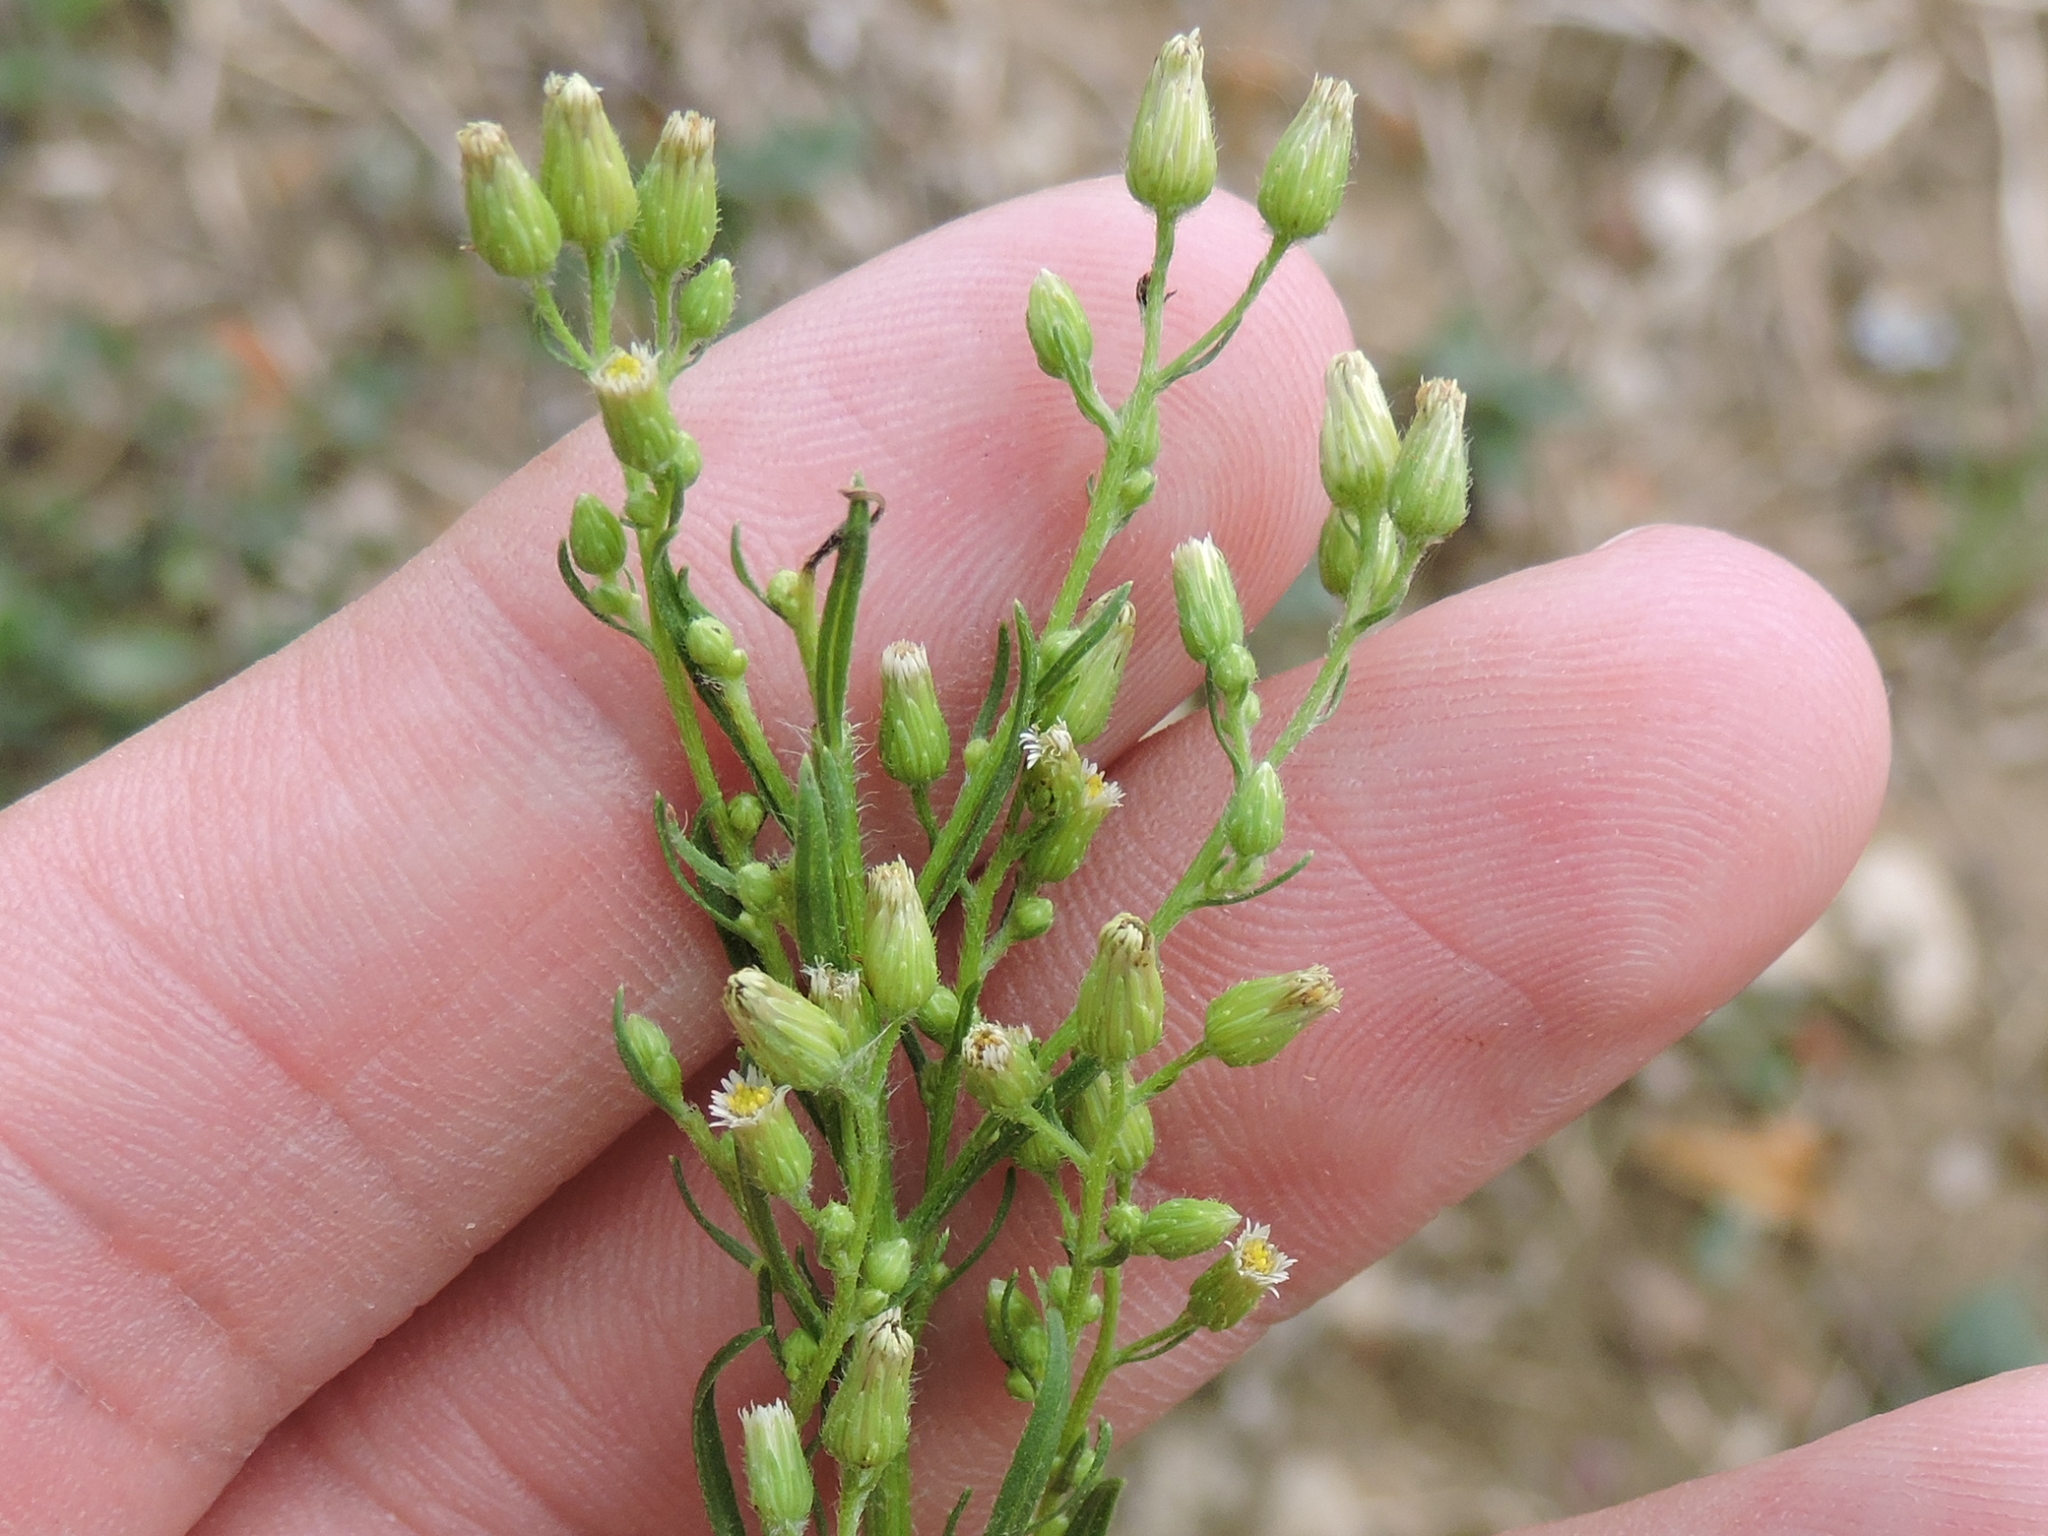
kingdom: Plantae
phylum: Tracheophyta
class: Magnoliopsida
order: Asterales
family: Asteraceae
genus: Erigeron
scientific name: Erigeron canadensis
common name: Canadian fleabane
